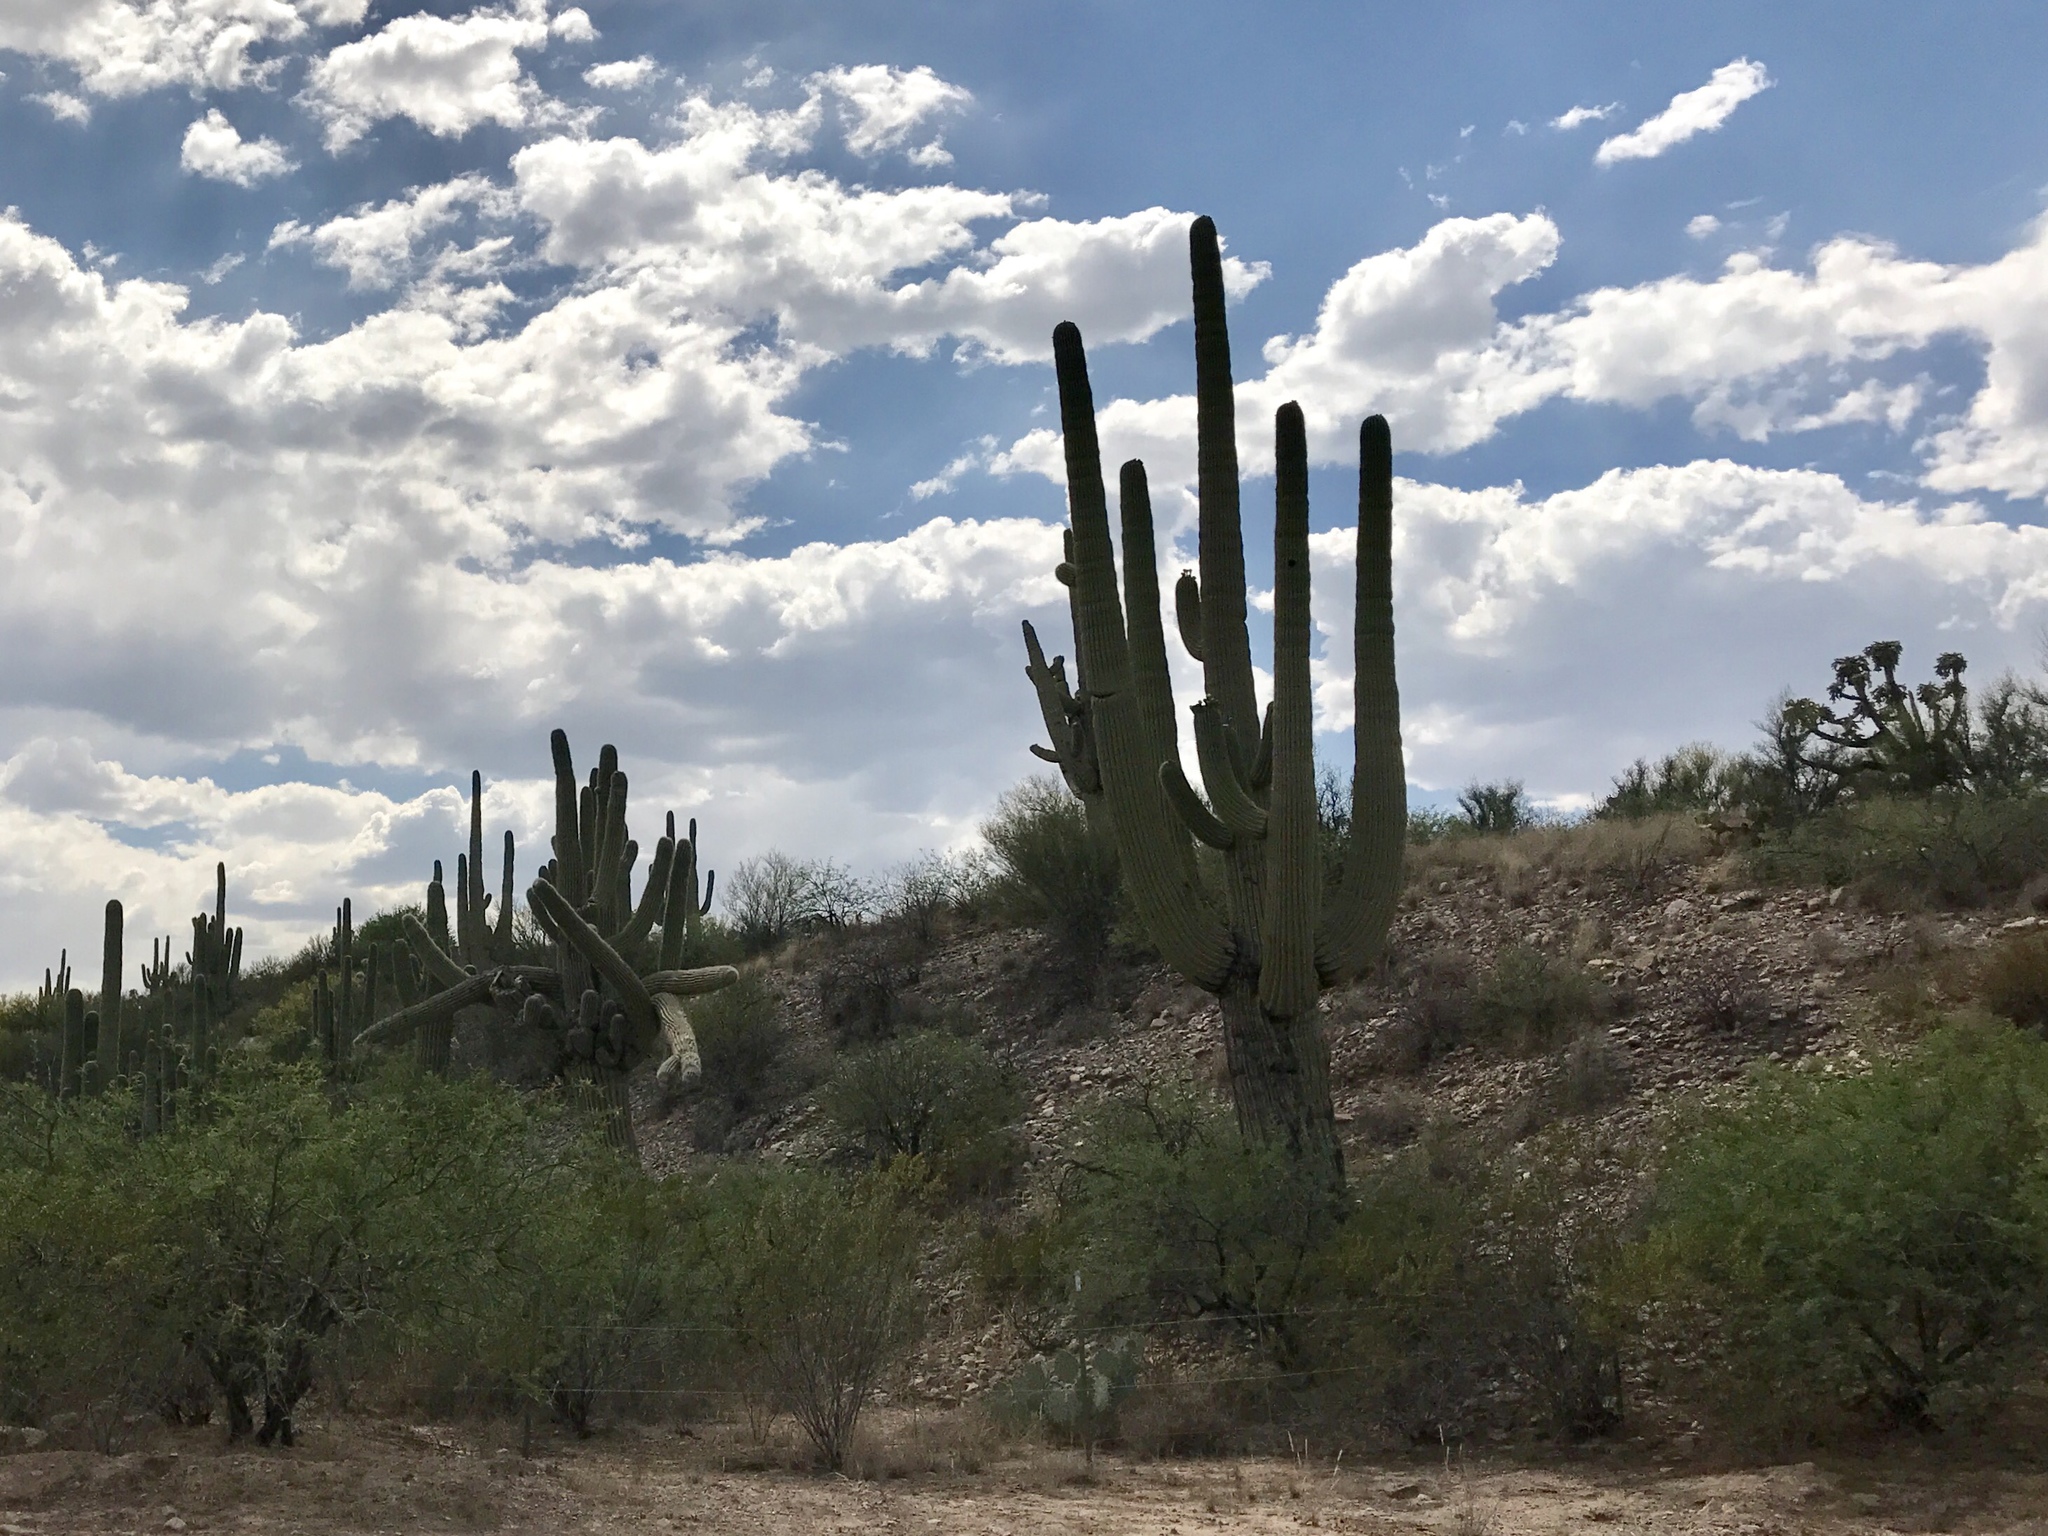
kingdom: Plantae
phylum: Tracheophyta
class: Magnoliopsida
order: Caryophyllales
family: Cactaceae
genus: Carnegiea
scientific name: Carnegiea gigantea
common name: Saguaro
